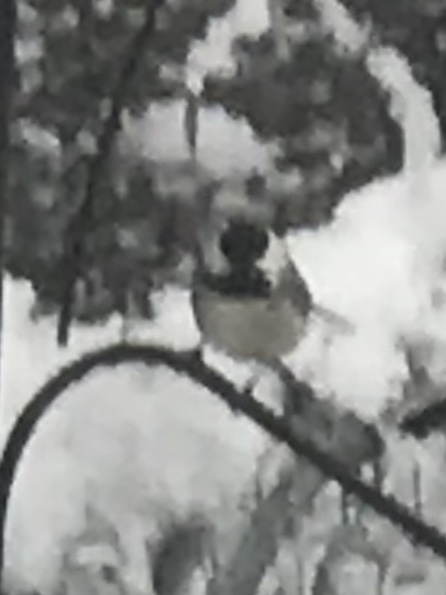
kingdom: Animalia
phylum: Chordata
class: Aves
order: Passeriformes
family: Paridae
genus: Poecile
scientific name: Poecile carolinensis
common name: Carolina chickadee
